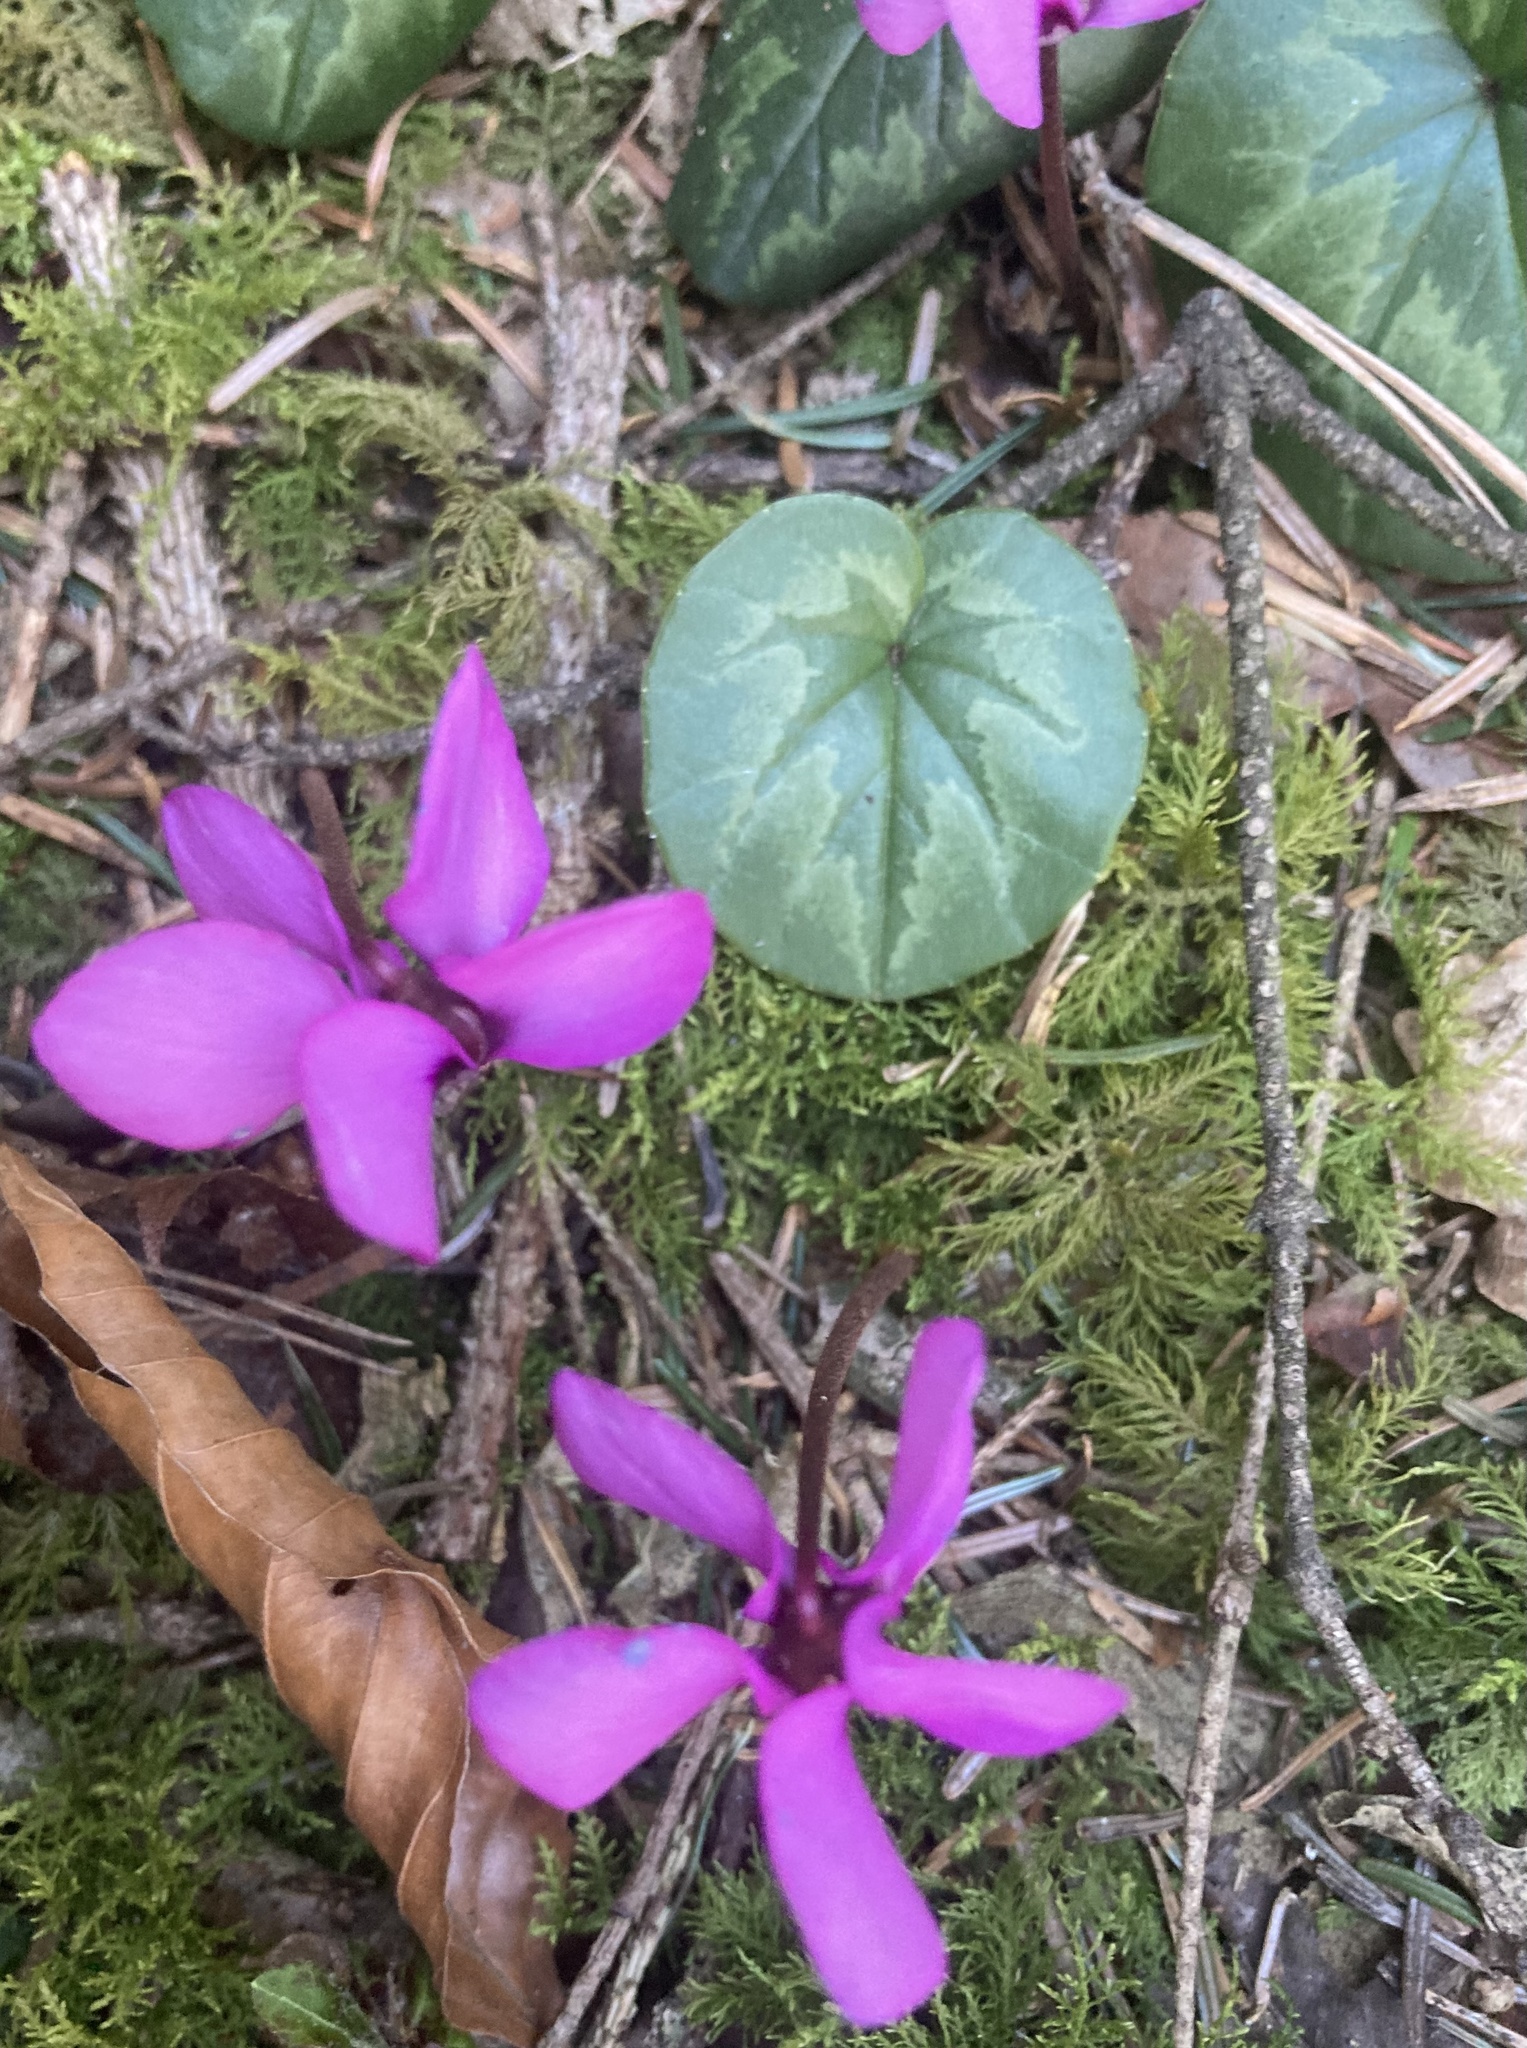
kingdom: Plantae
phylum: Tracheophyta
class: Magnoliopsida
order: Ericales
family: Primulaceae
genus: Cyclamen
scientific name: Cyclamen coum
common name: Eastern sowbread
